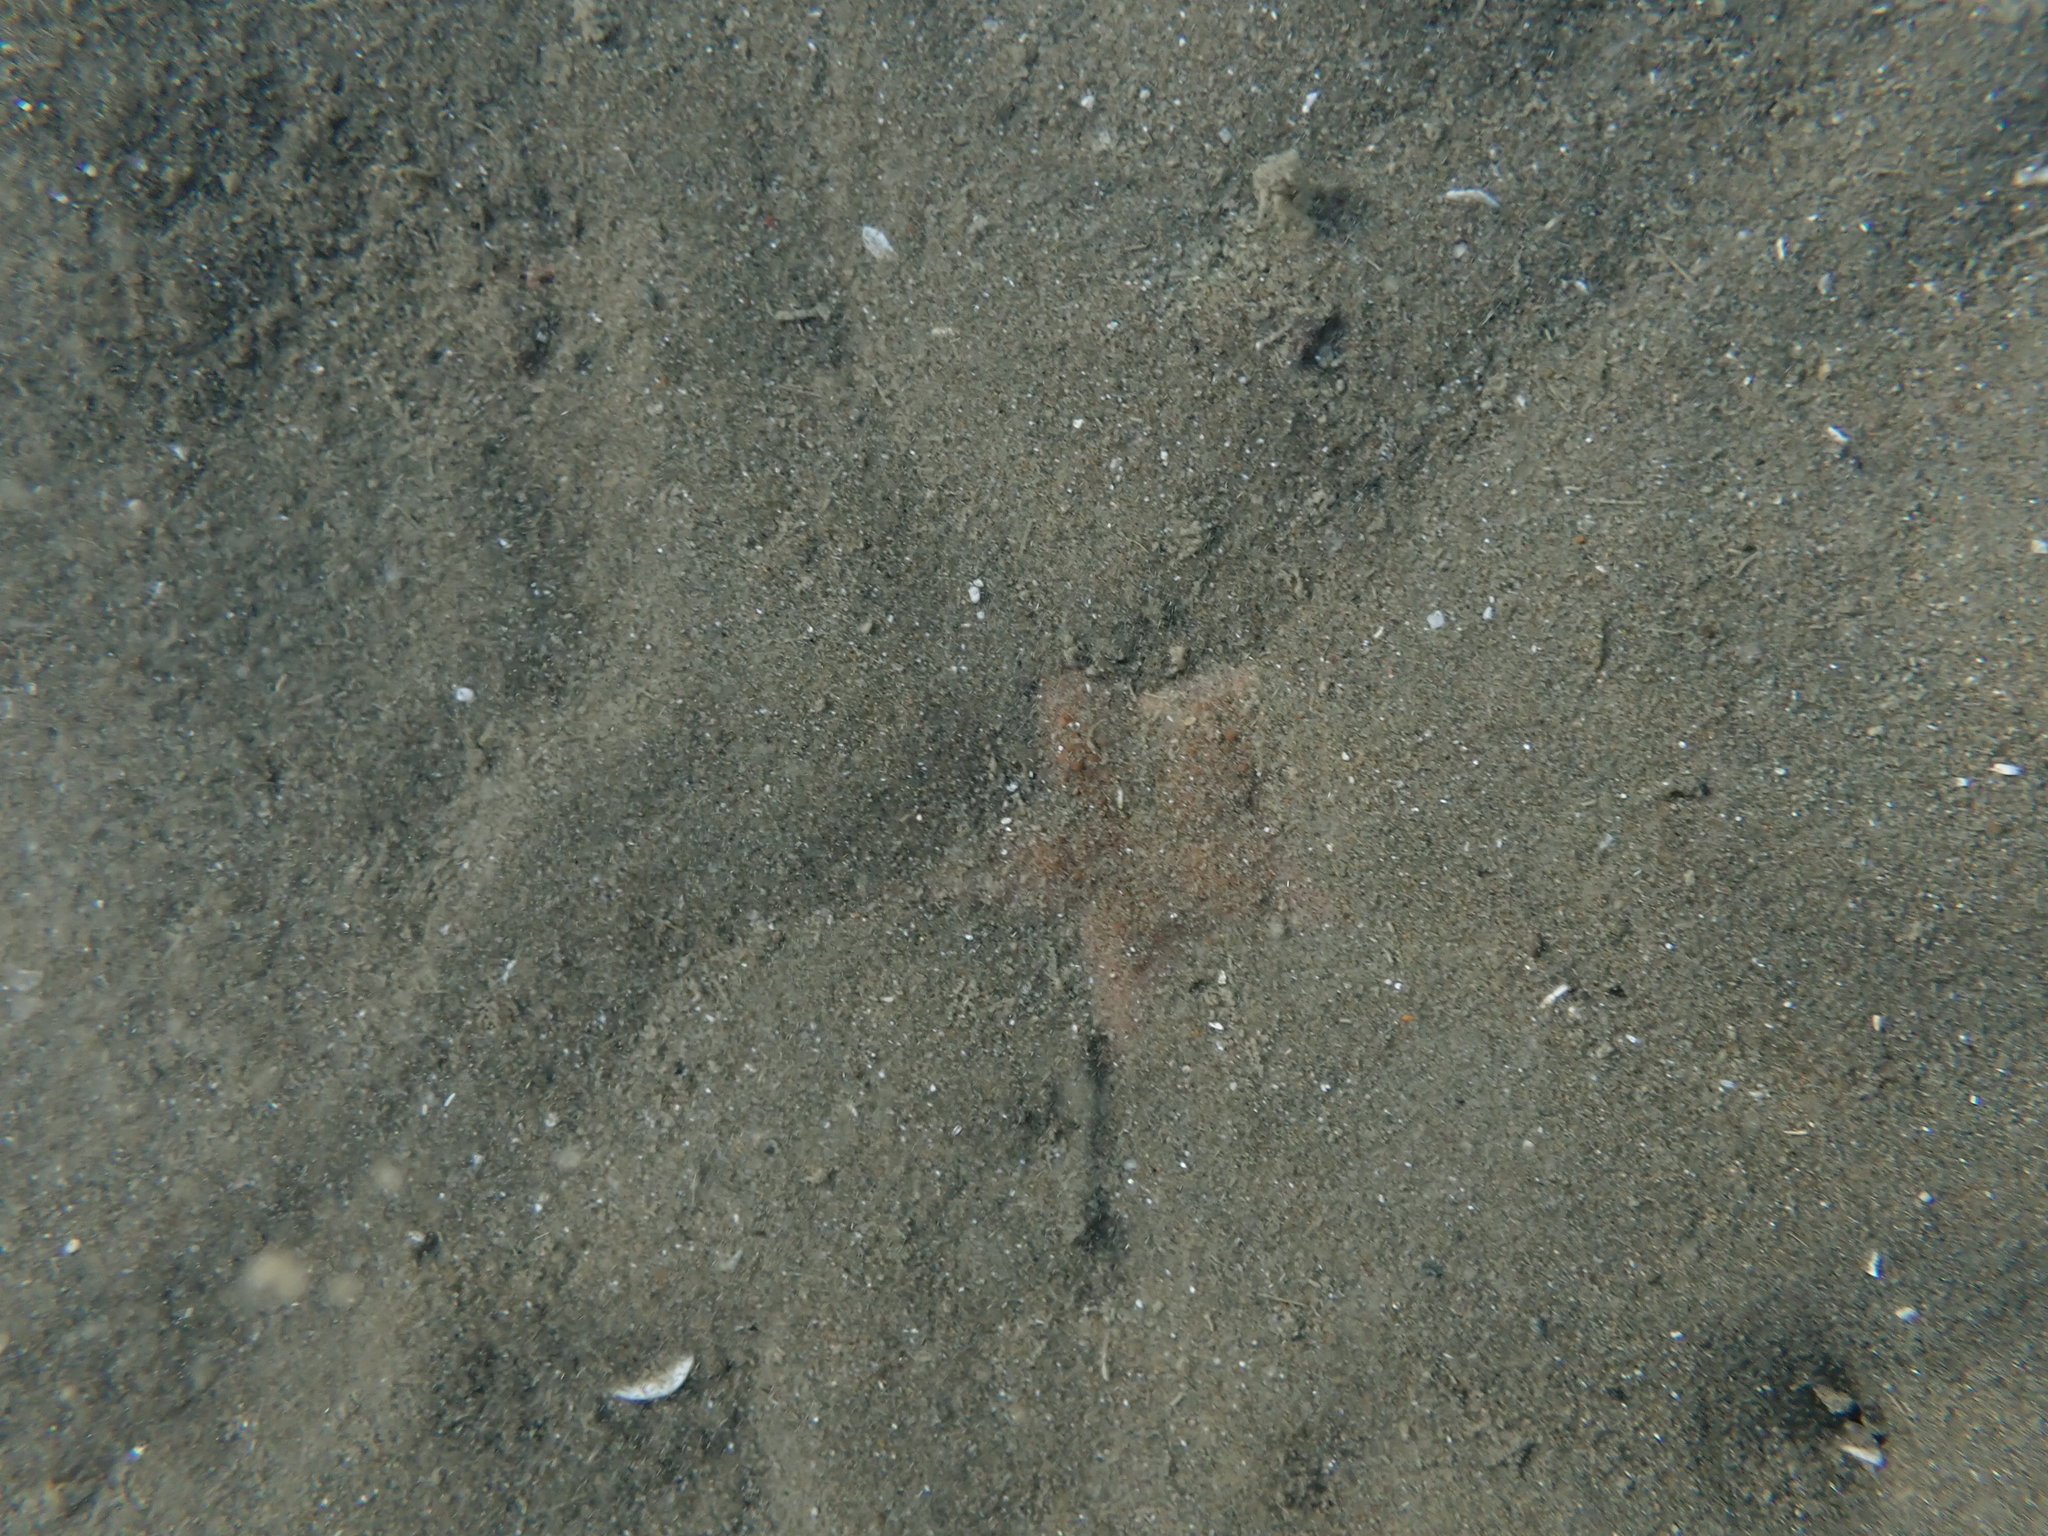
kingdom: Animalia
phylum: Echinodermata
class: Asteroidea
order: Paxillosida
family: Astropectinidae
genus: Astropecten
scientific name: Astropecten polyacanthus
